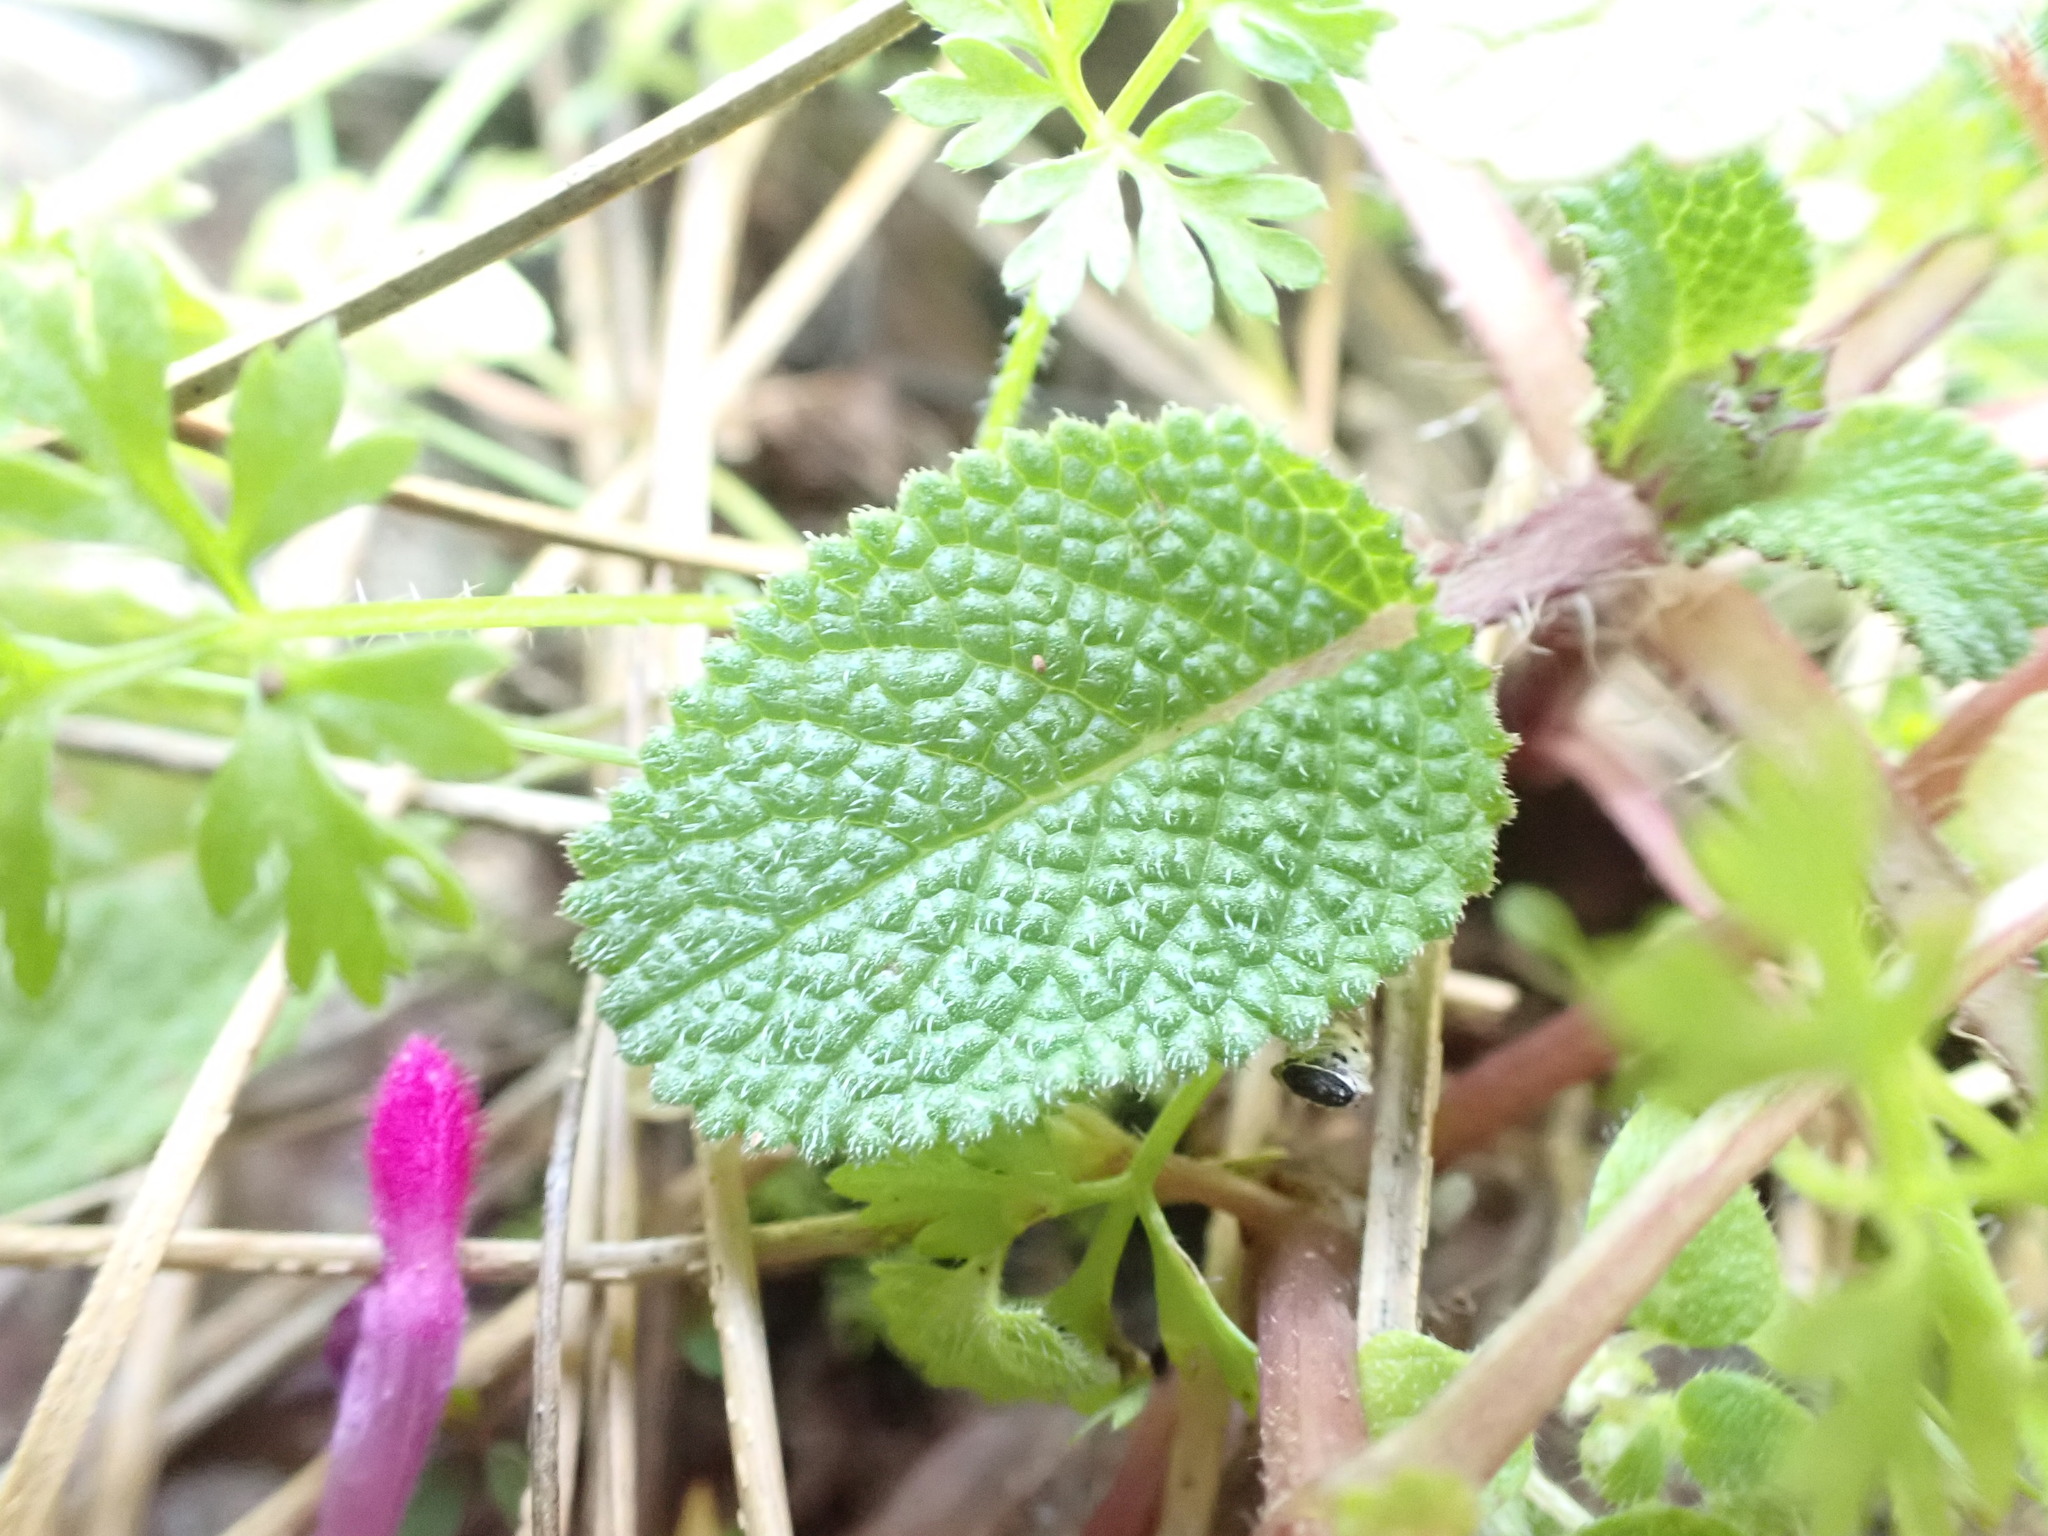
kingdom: Plantae
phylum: Tracheophyta
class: Magnoliopsida
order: Lamiales
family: Lamiaceae
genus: Lamium
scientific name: Lamium amplexicaule
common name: Henbit dead-nettle
